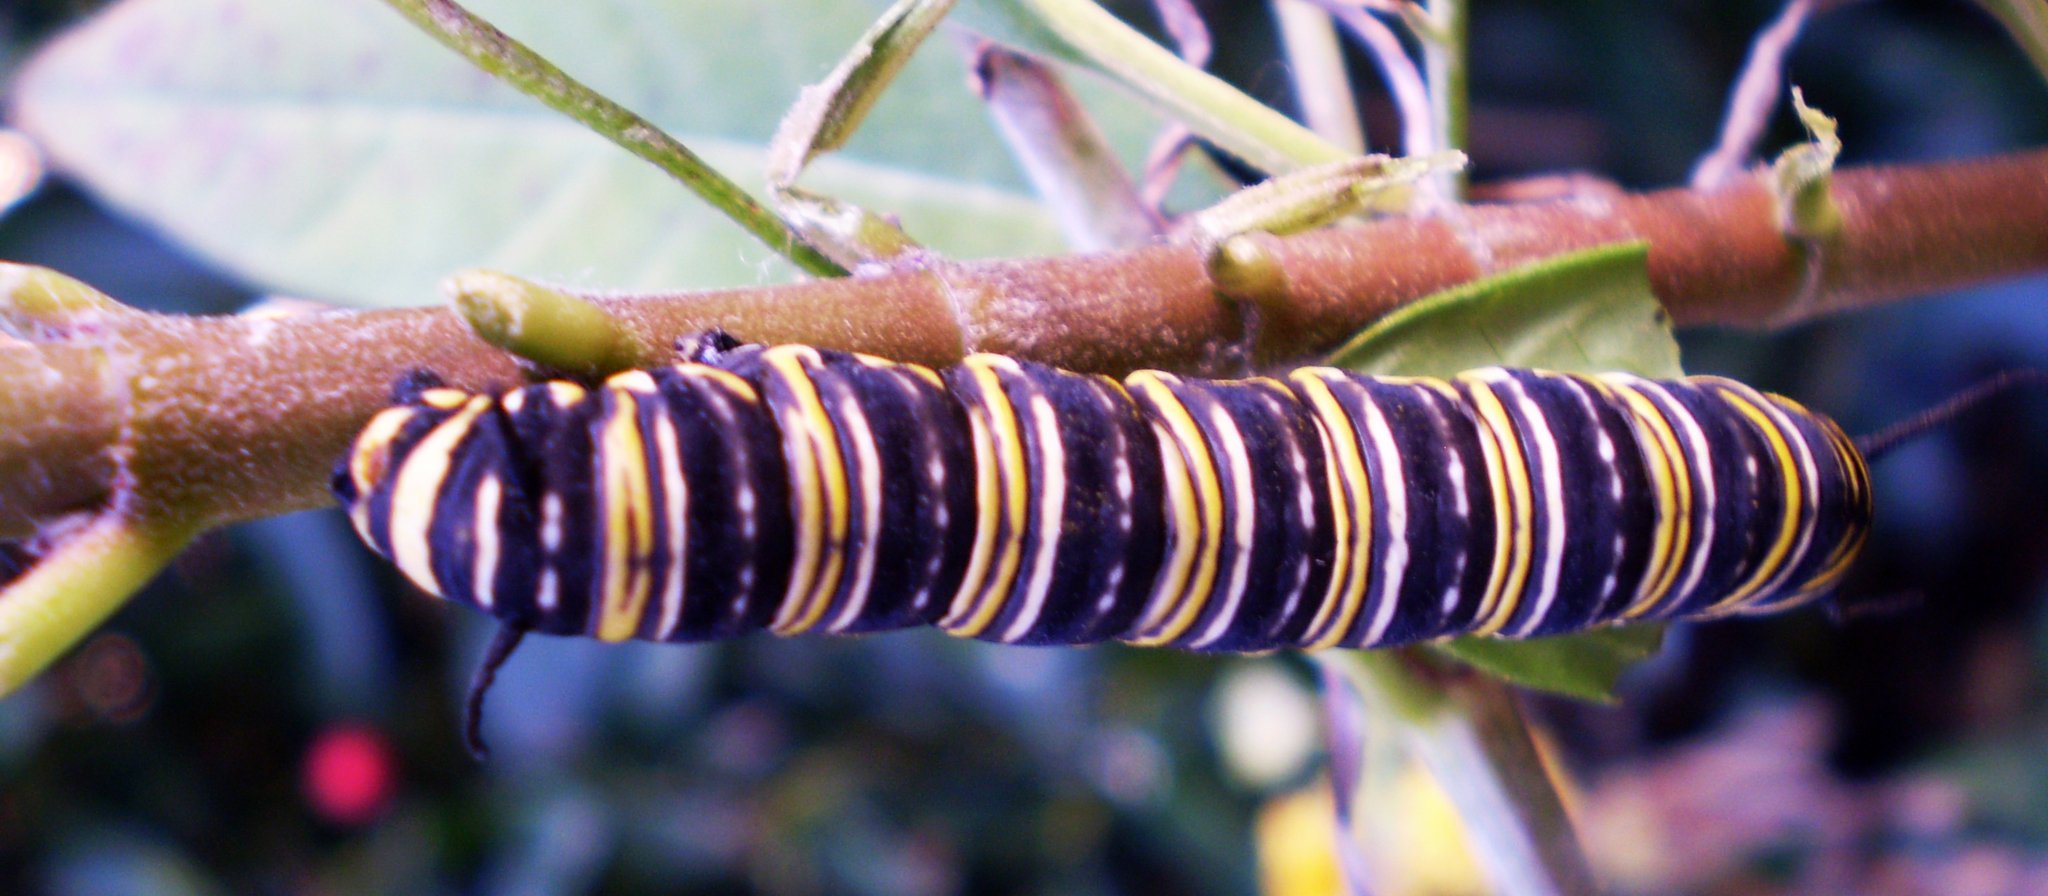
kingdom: Animalia
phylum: Arthropoda
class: Insecta
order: Lepidoptera
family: Nymphalidae
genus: Danaus
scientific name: Danaus plexippus
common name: Monarch
